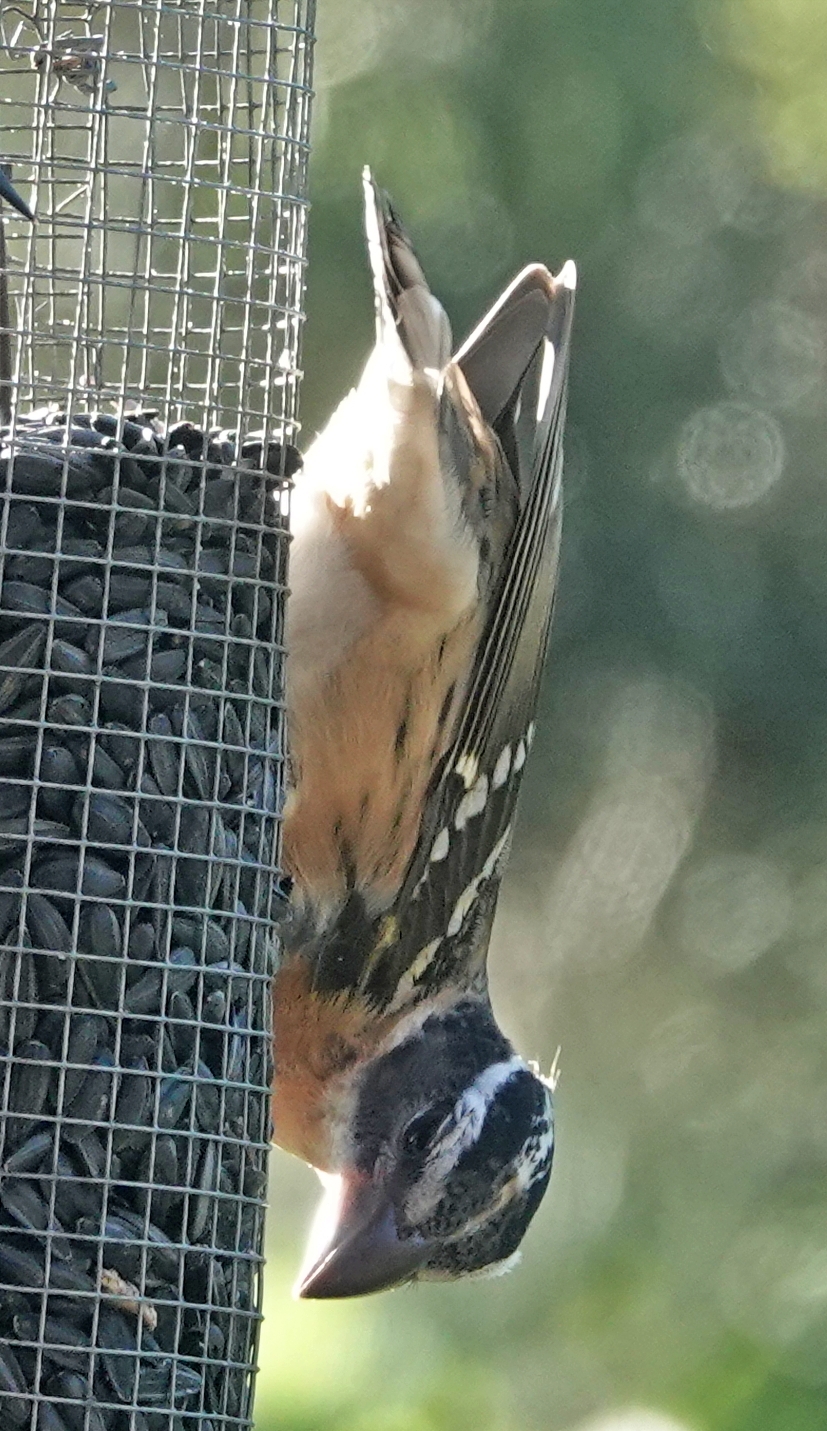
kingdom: Animalia
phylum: Chordata
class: Aves
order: Passeriformes
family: Cardinalidae
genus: Pheucticus
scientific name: Pheucticus melanocephalus
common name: Black-headed grosbeak
